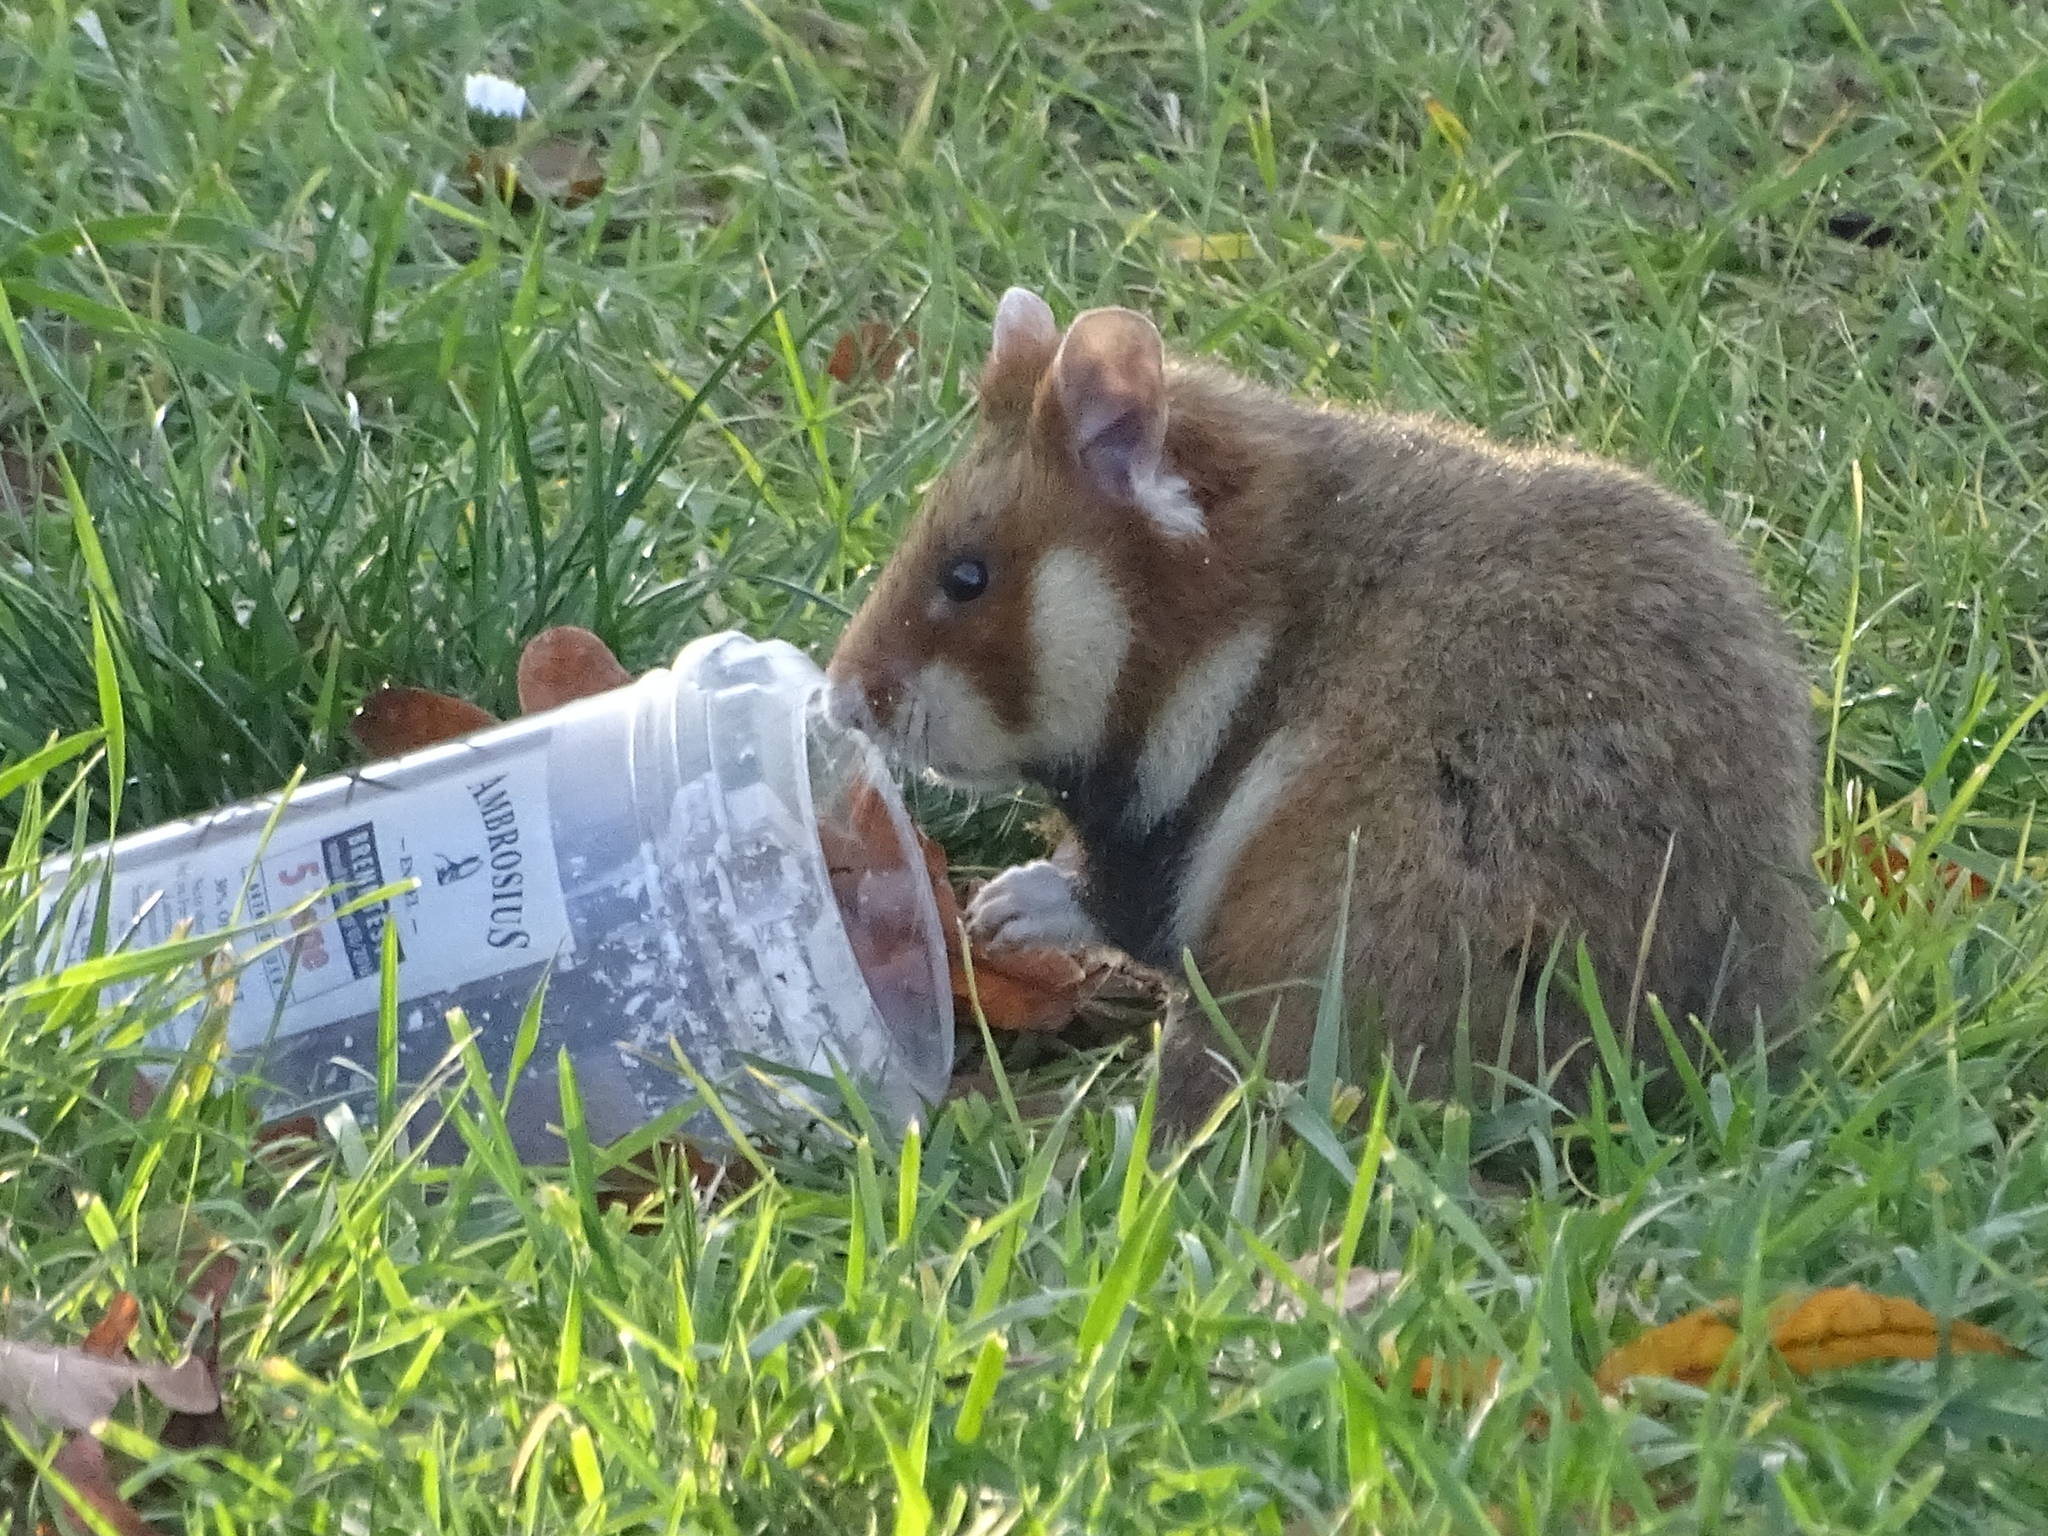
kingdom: Animalia
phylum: Chordata
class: Mammalia
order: Rodentia
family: Cricetidae
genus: Cricetus
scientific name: Cricetus cricetus
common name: Common hamster
